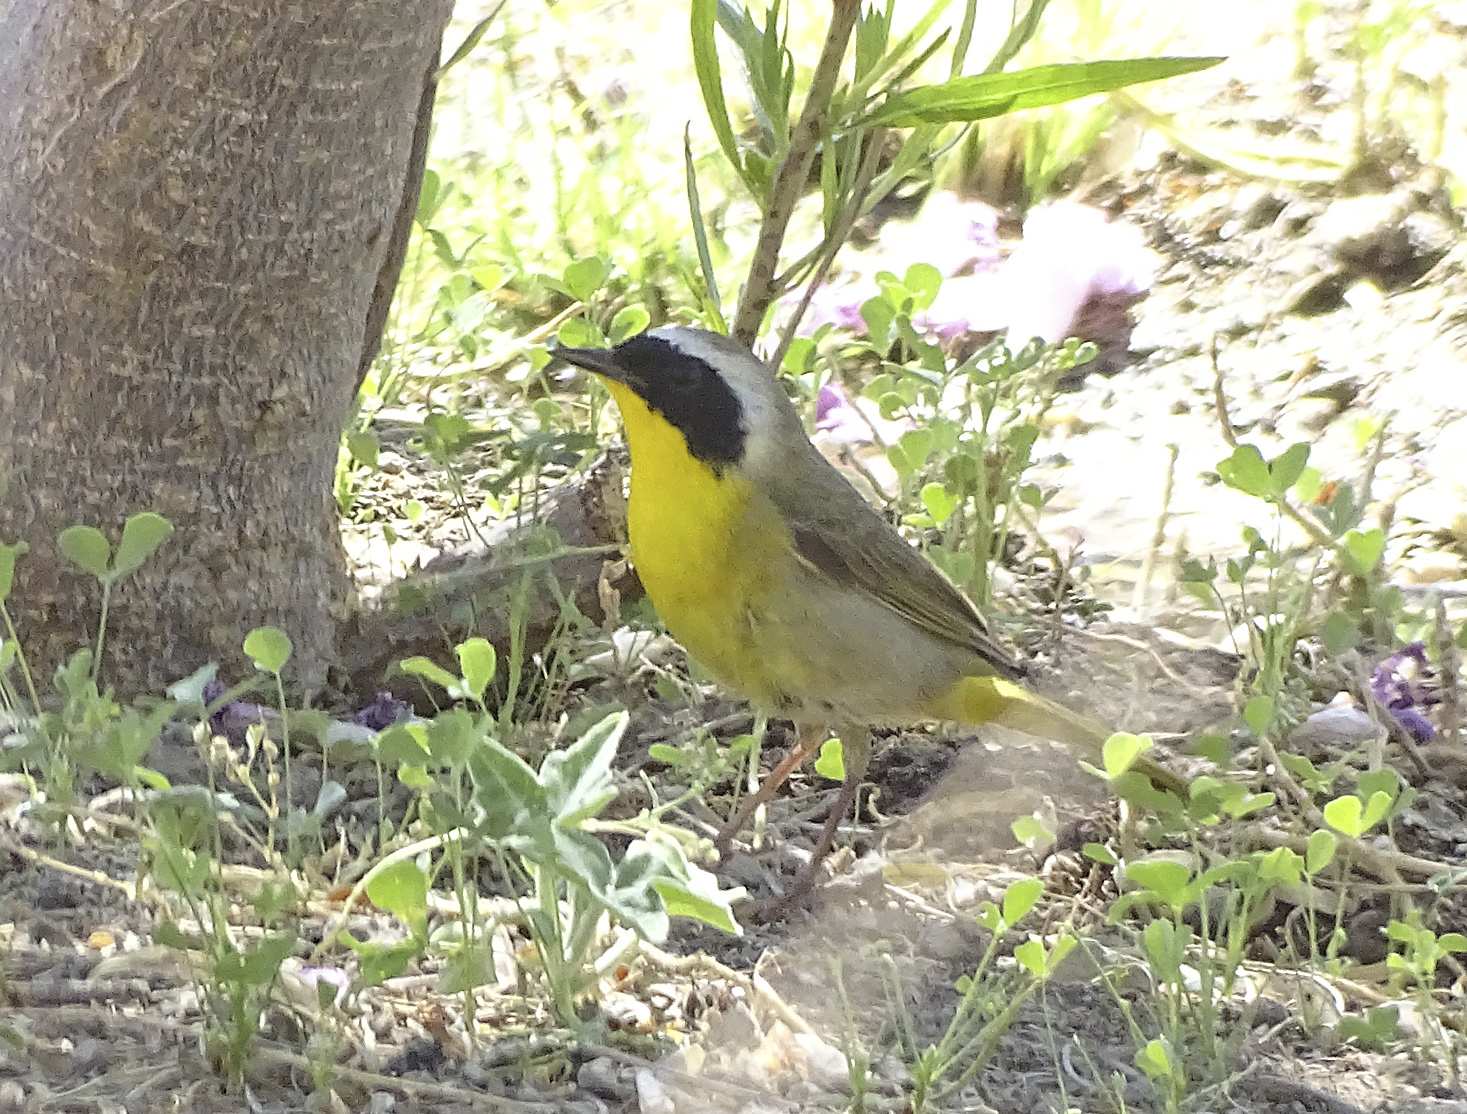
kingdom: Animalia
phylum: Chordata
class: Aves
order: Passeriformes
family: Parulidae
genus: Geothlypis
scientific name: Geothlypis trichas
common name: Common yellowthroat
